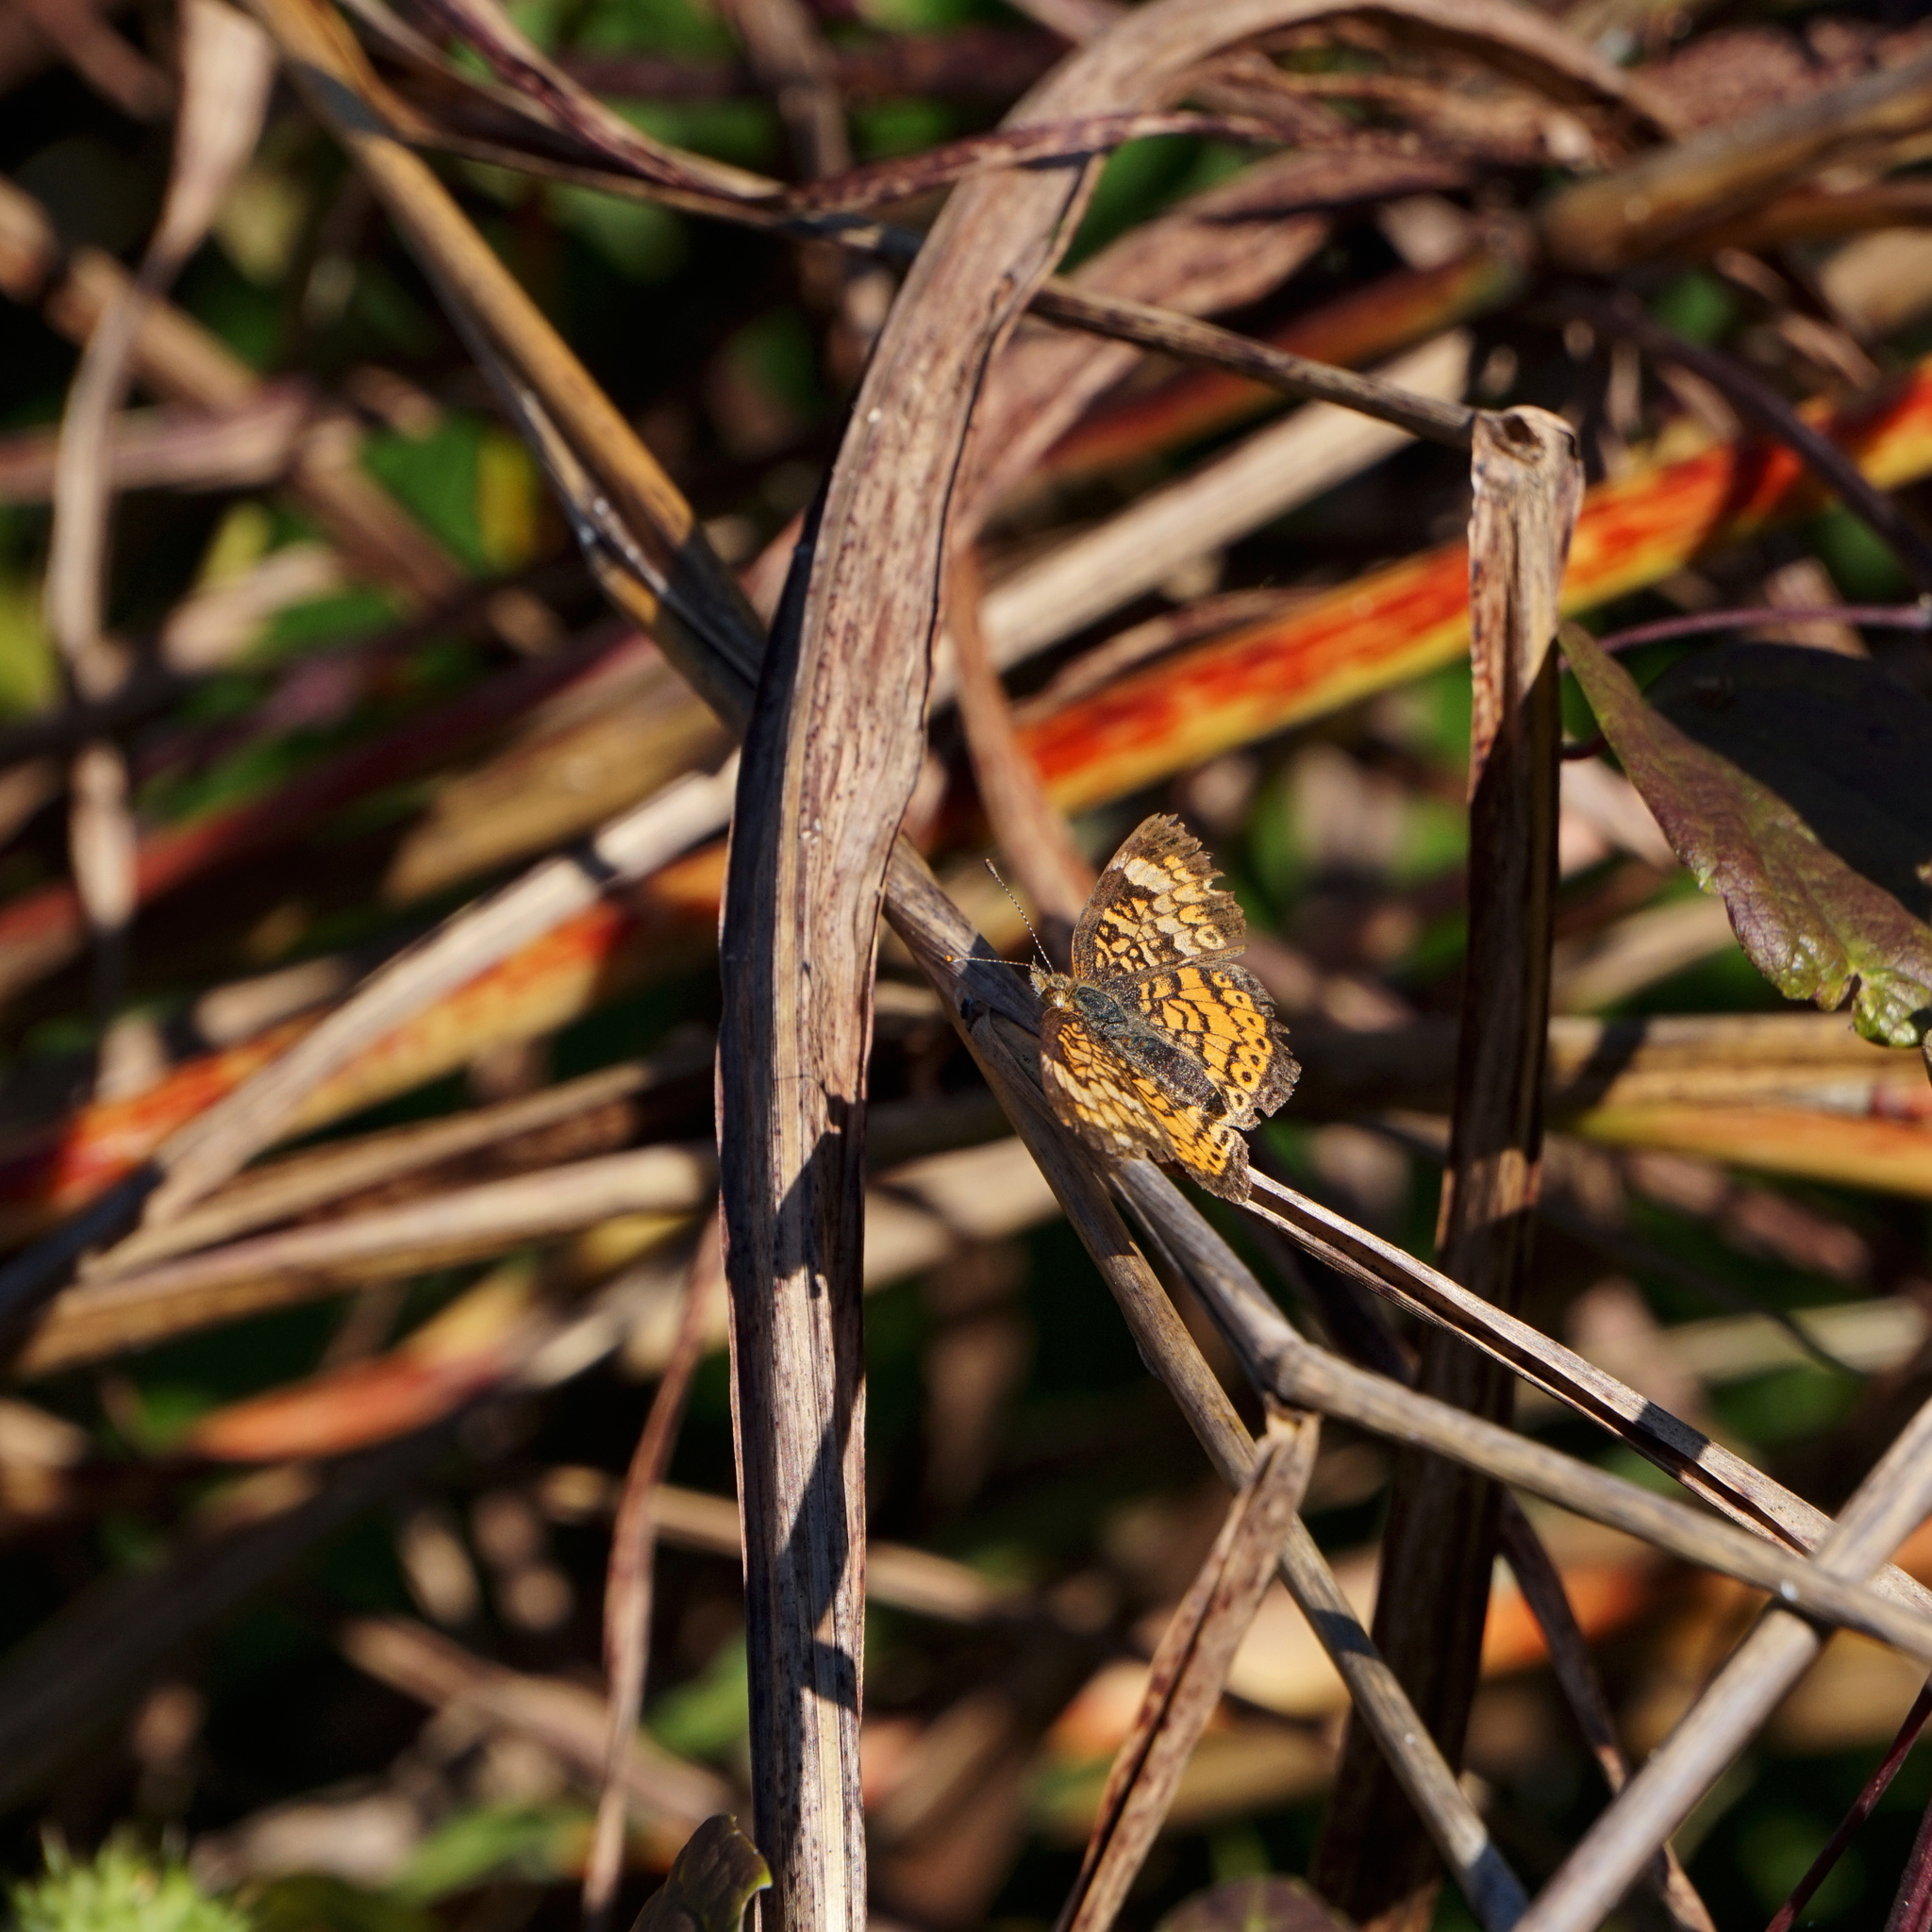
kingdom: Animalia
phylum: Arthropoda
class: Insecta
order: Lepidoptera
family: Nymphalidae
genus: Phyciodes
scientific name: Phyciodes tharos
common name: Pearl crescent
